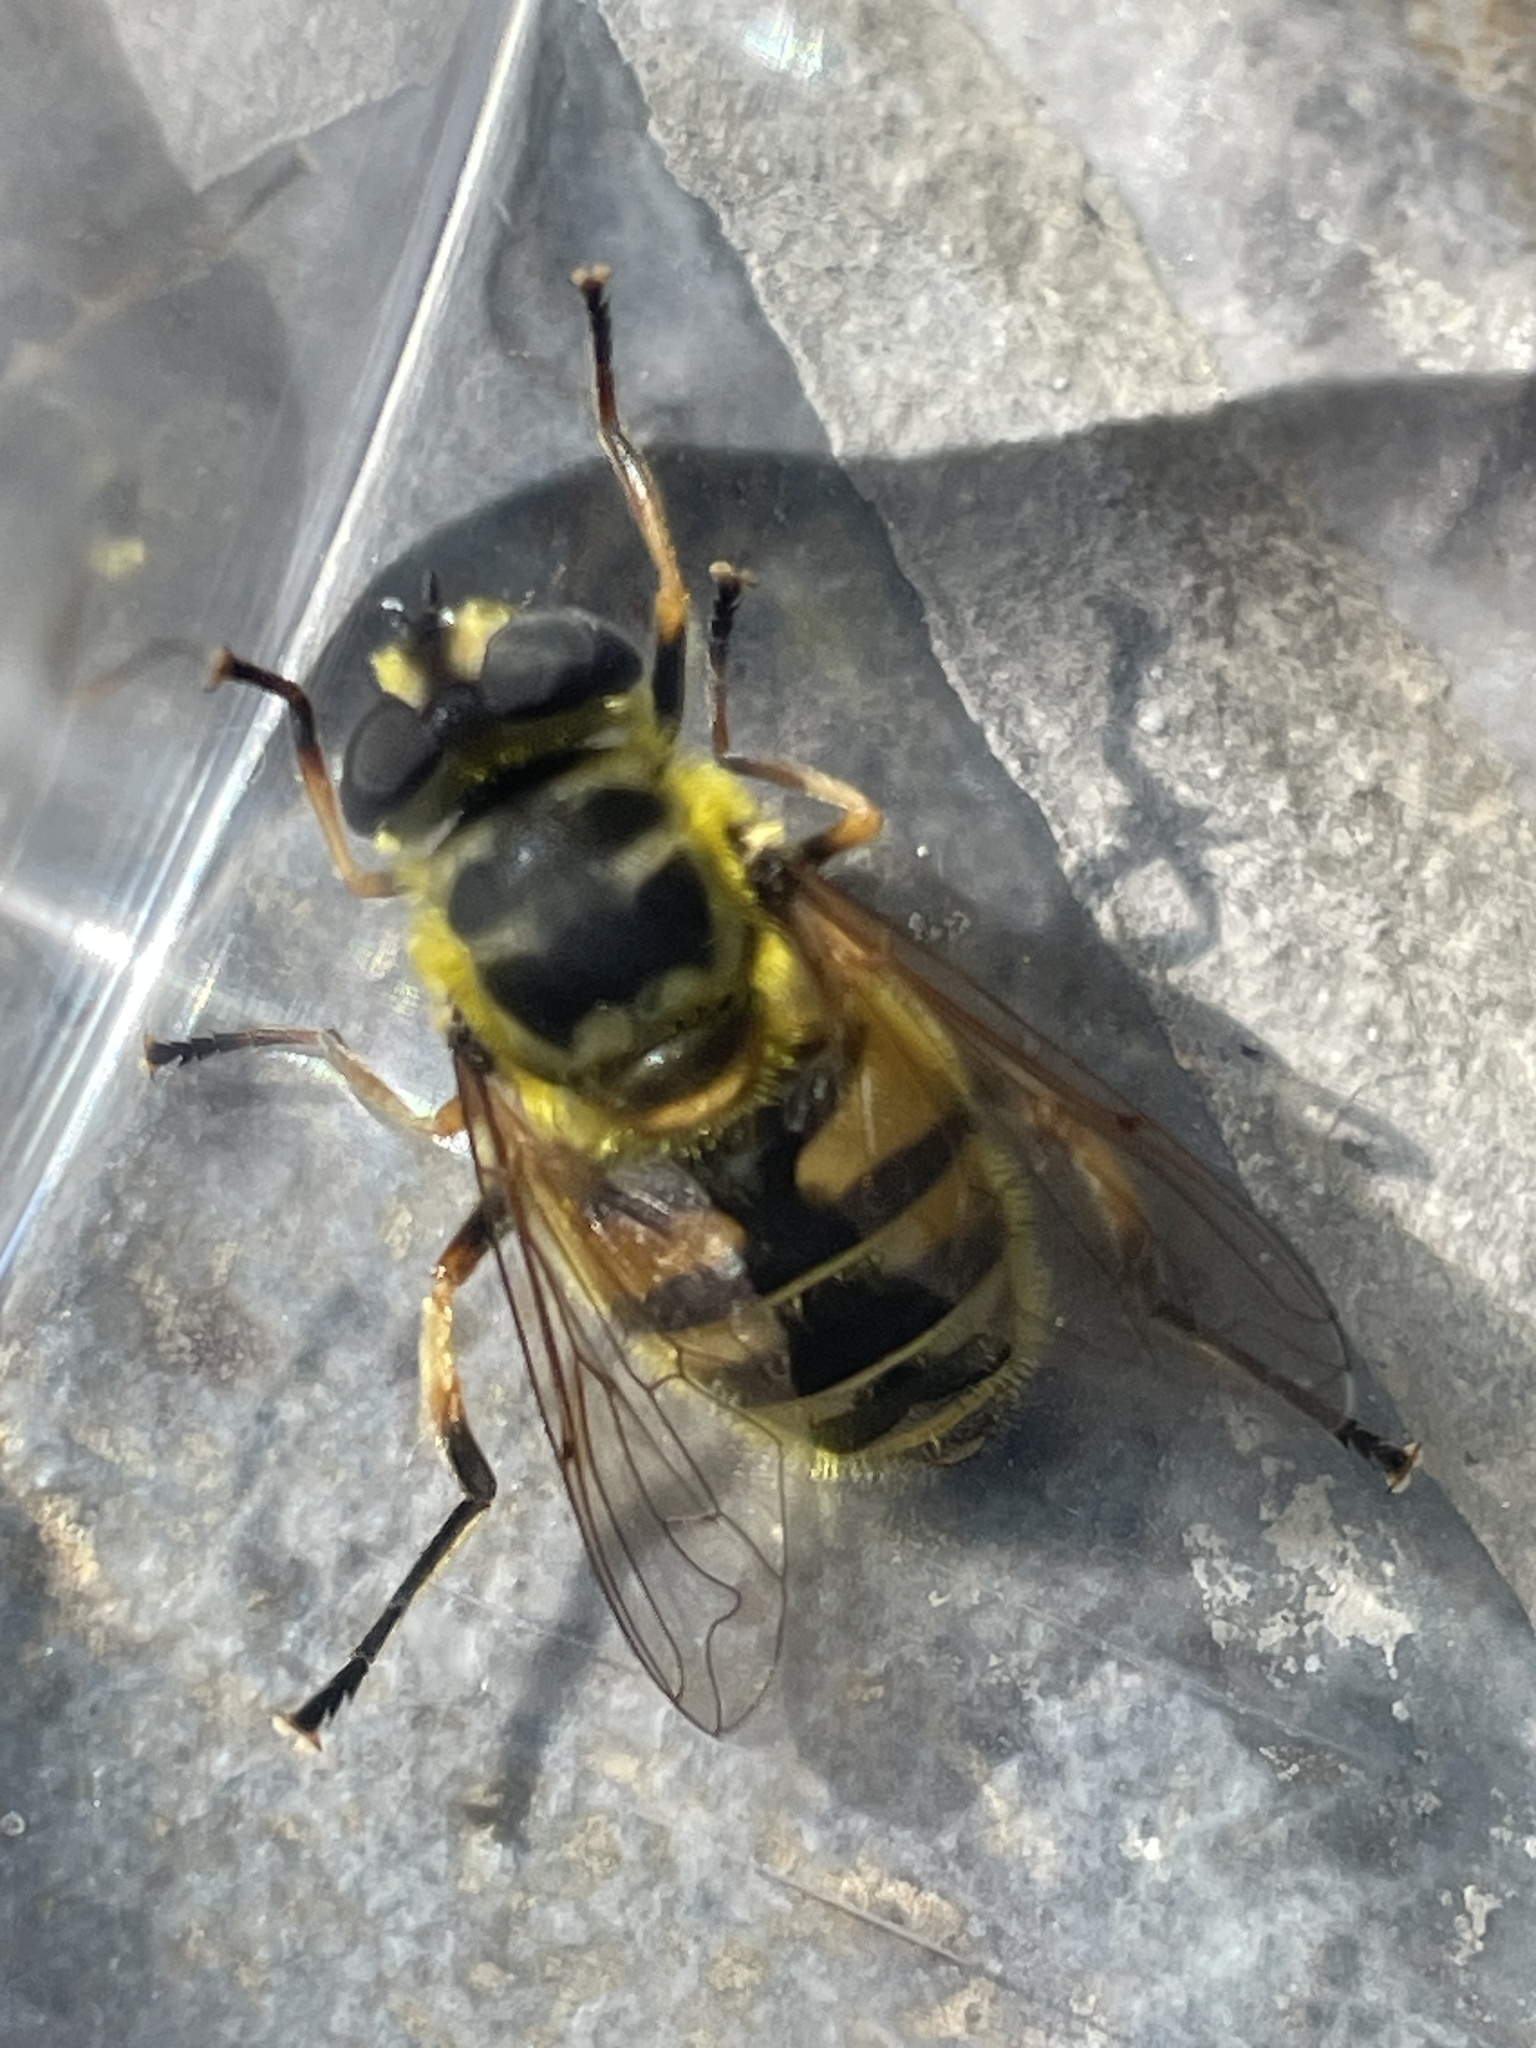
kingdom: Animalia
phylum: Arthropoda
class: Insecta
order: Diptera
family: Syrphidae
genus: Myathropa
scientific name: Myathropa florea
